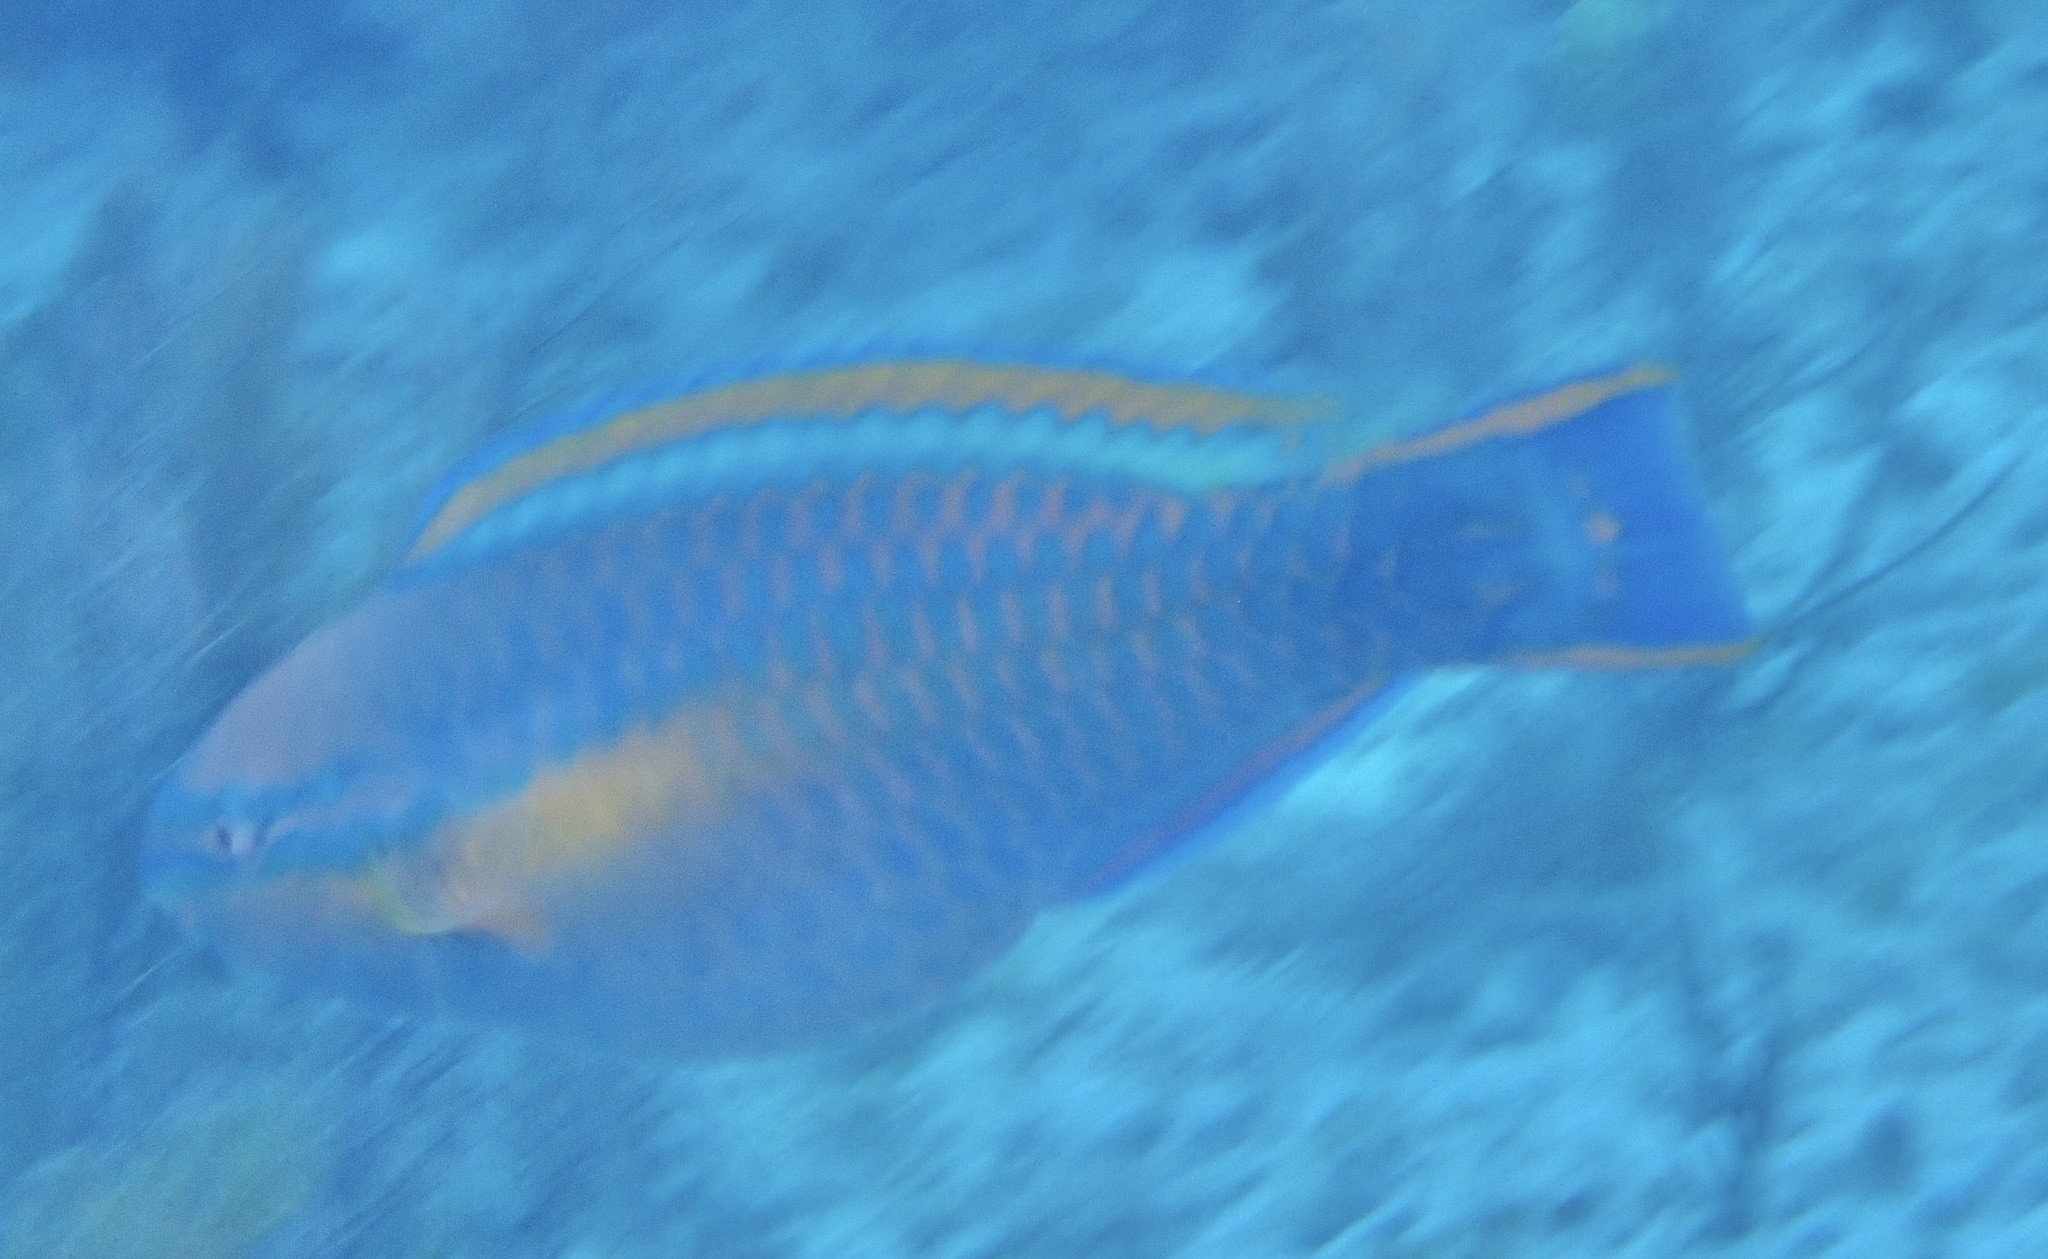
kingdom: Animalia
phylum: Chordata
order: Perciformes
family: Scaridae
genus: Scarus
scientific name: Scarus taeniopterus
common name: Princess parrotfish
